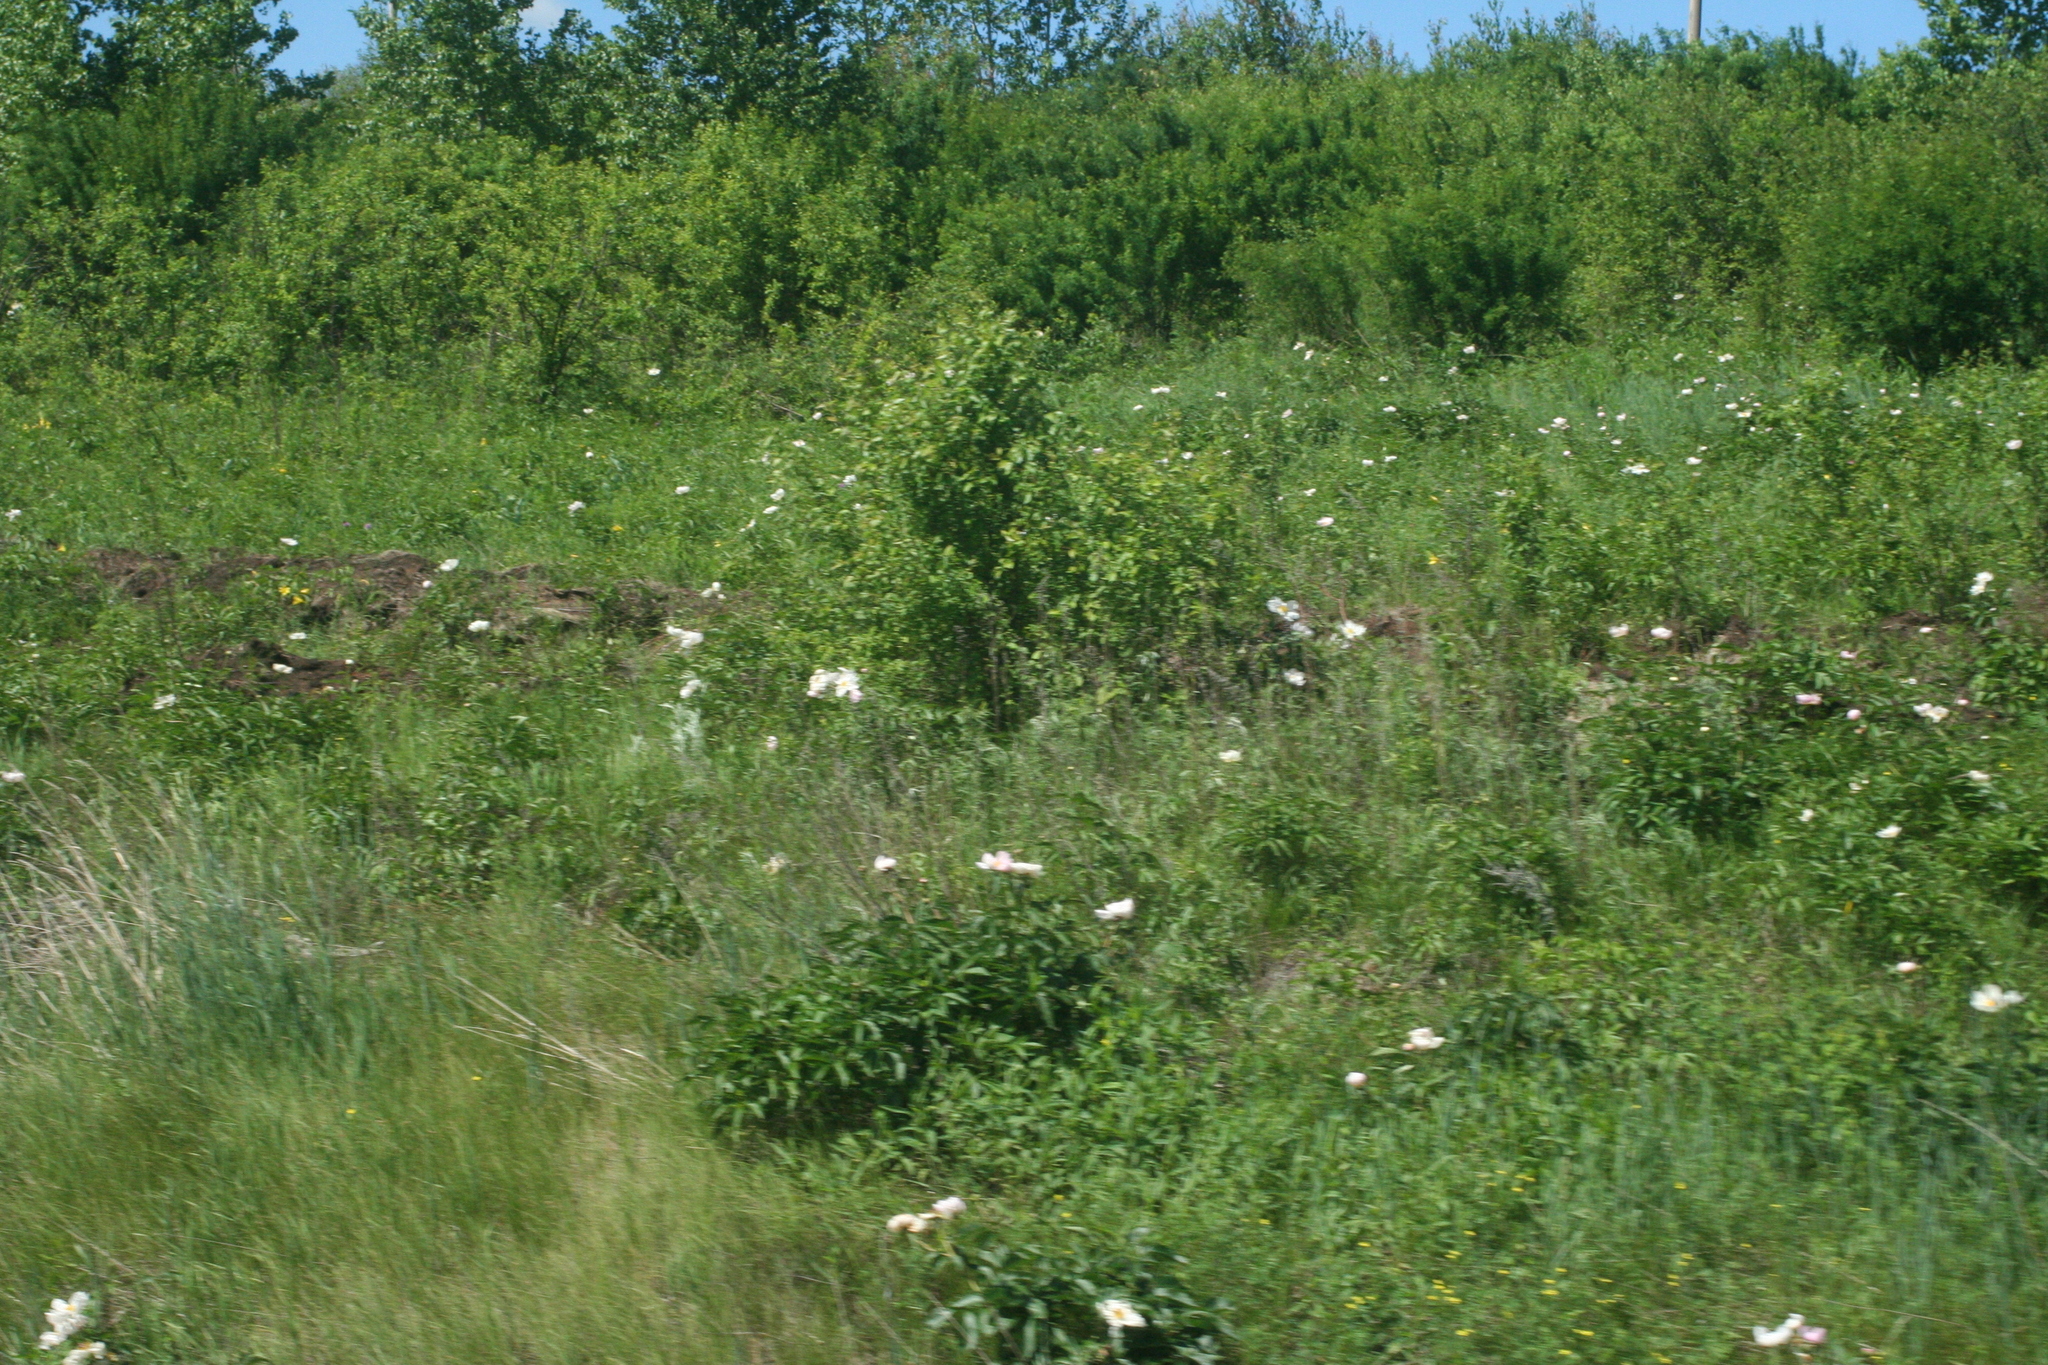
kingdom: Plantae
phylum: Tracheophyta
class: Magnoliopsida
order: Saxifragales
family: Paeoniaceae
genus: Paeonia
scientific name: Paeonia lactiflora
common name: Chinese peony
